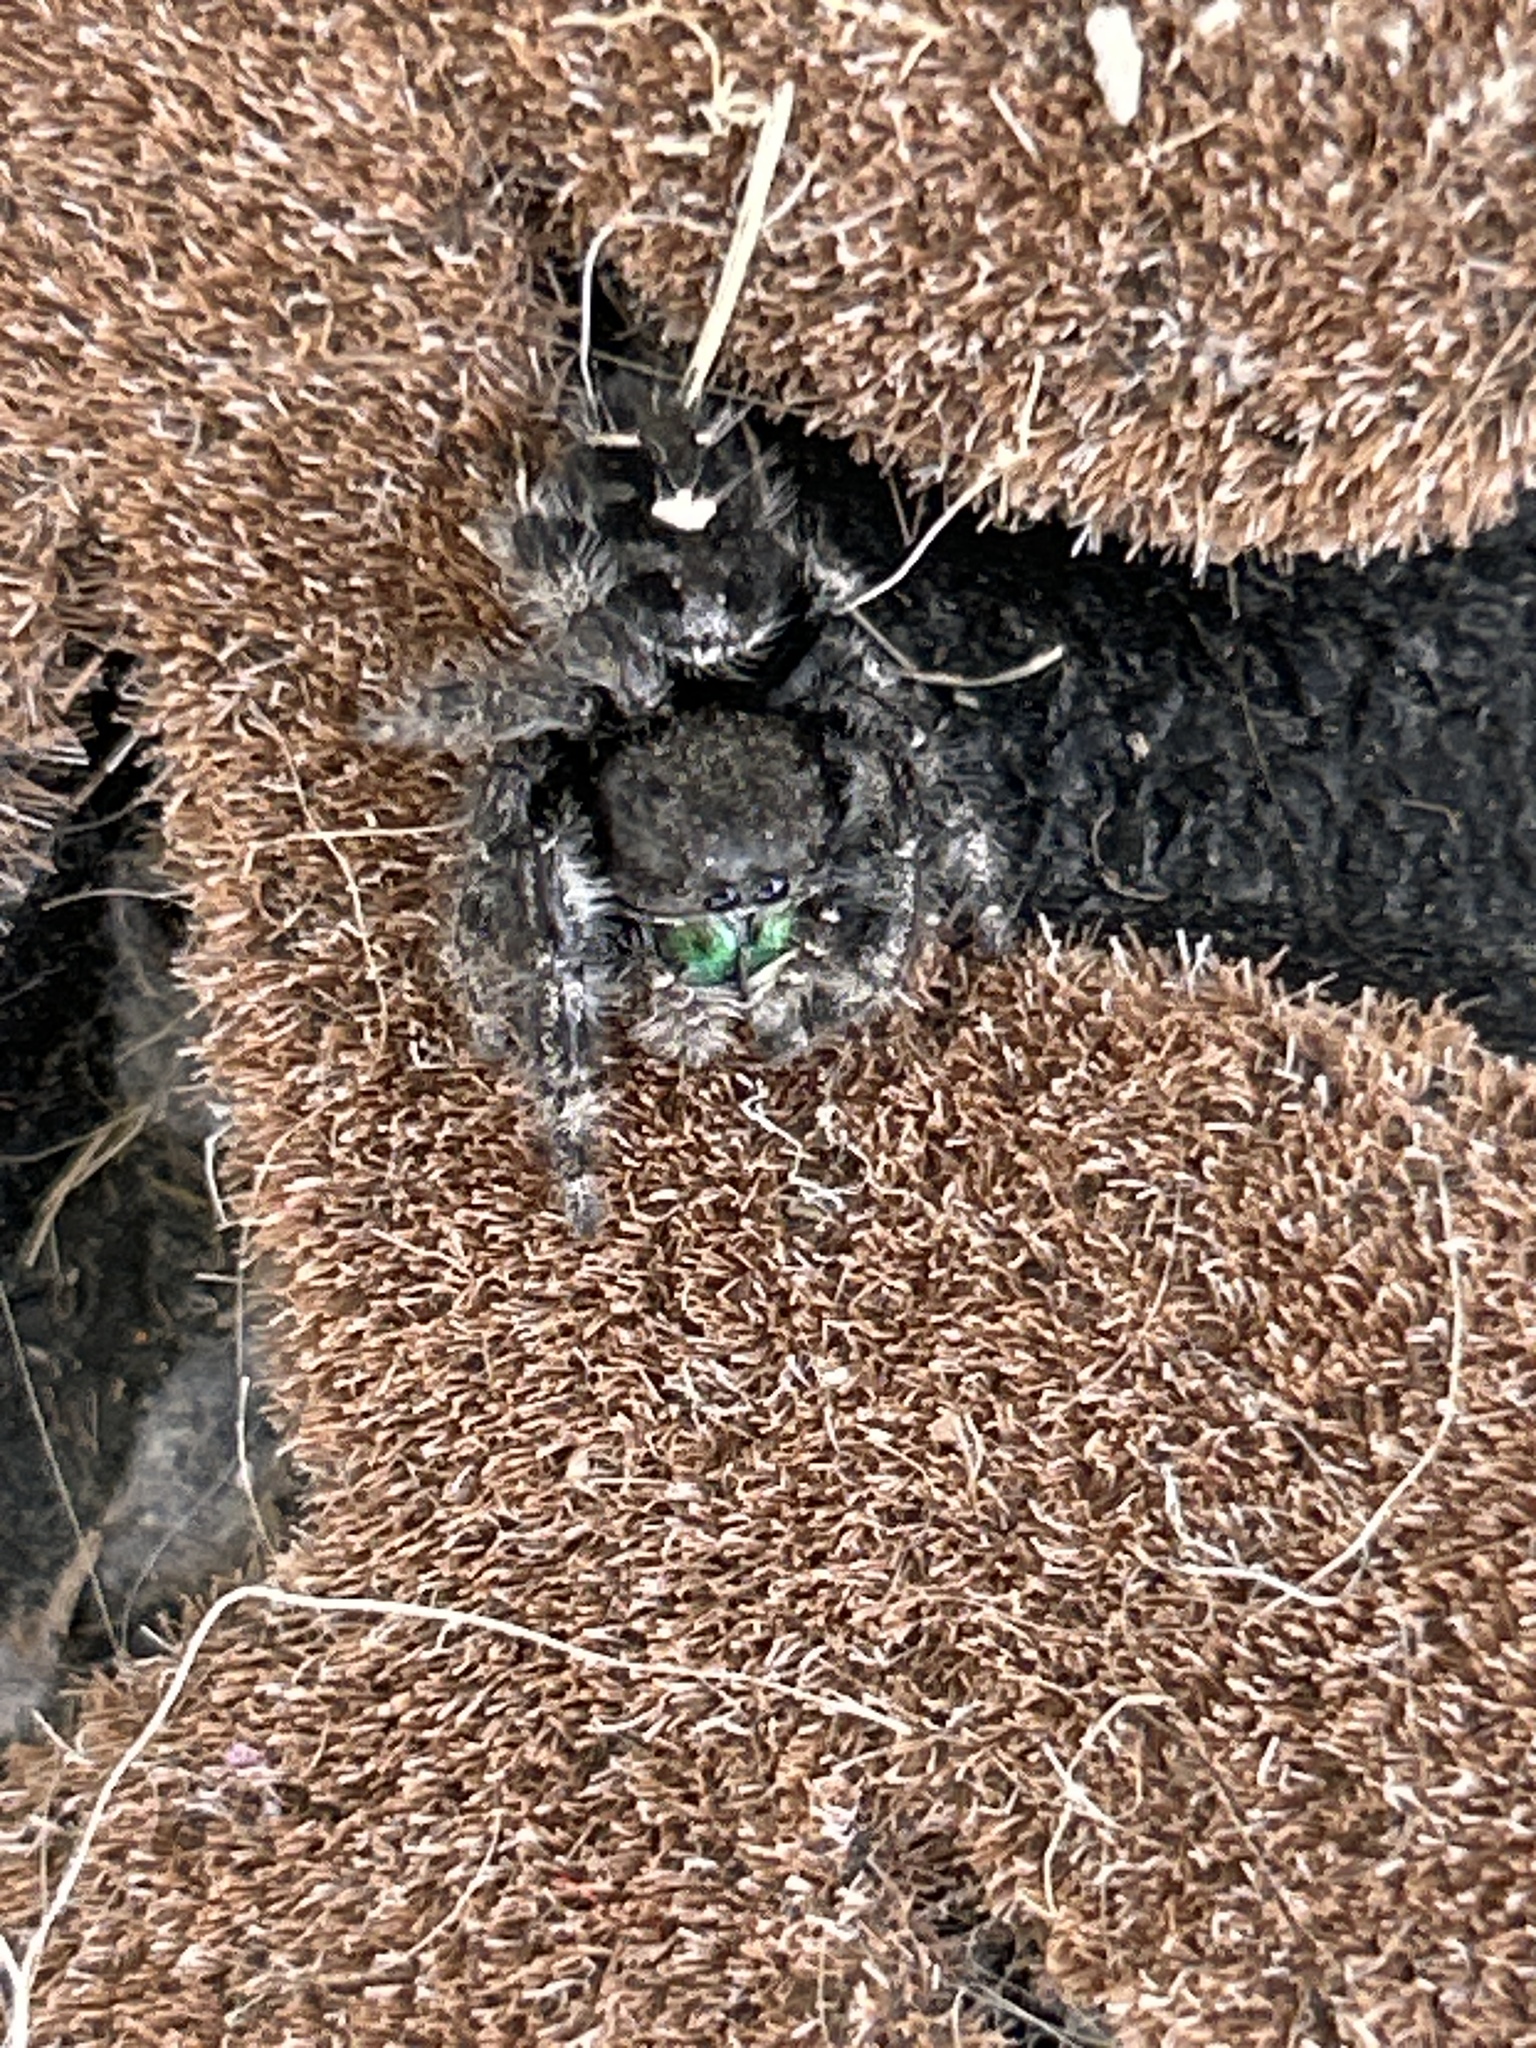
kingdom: Animalia
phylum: Arthropoda
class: Arachnida
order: Araneae
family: Salticidae
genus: Phidippus
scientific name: Phidippus audax
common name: Bold jumper
